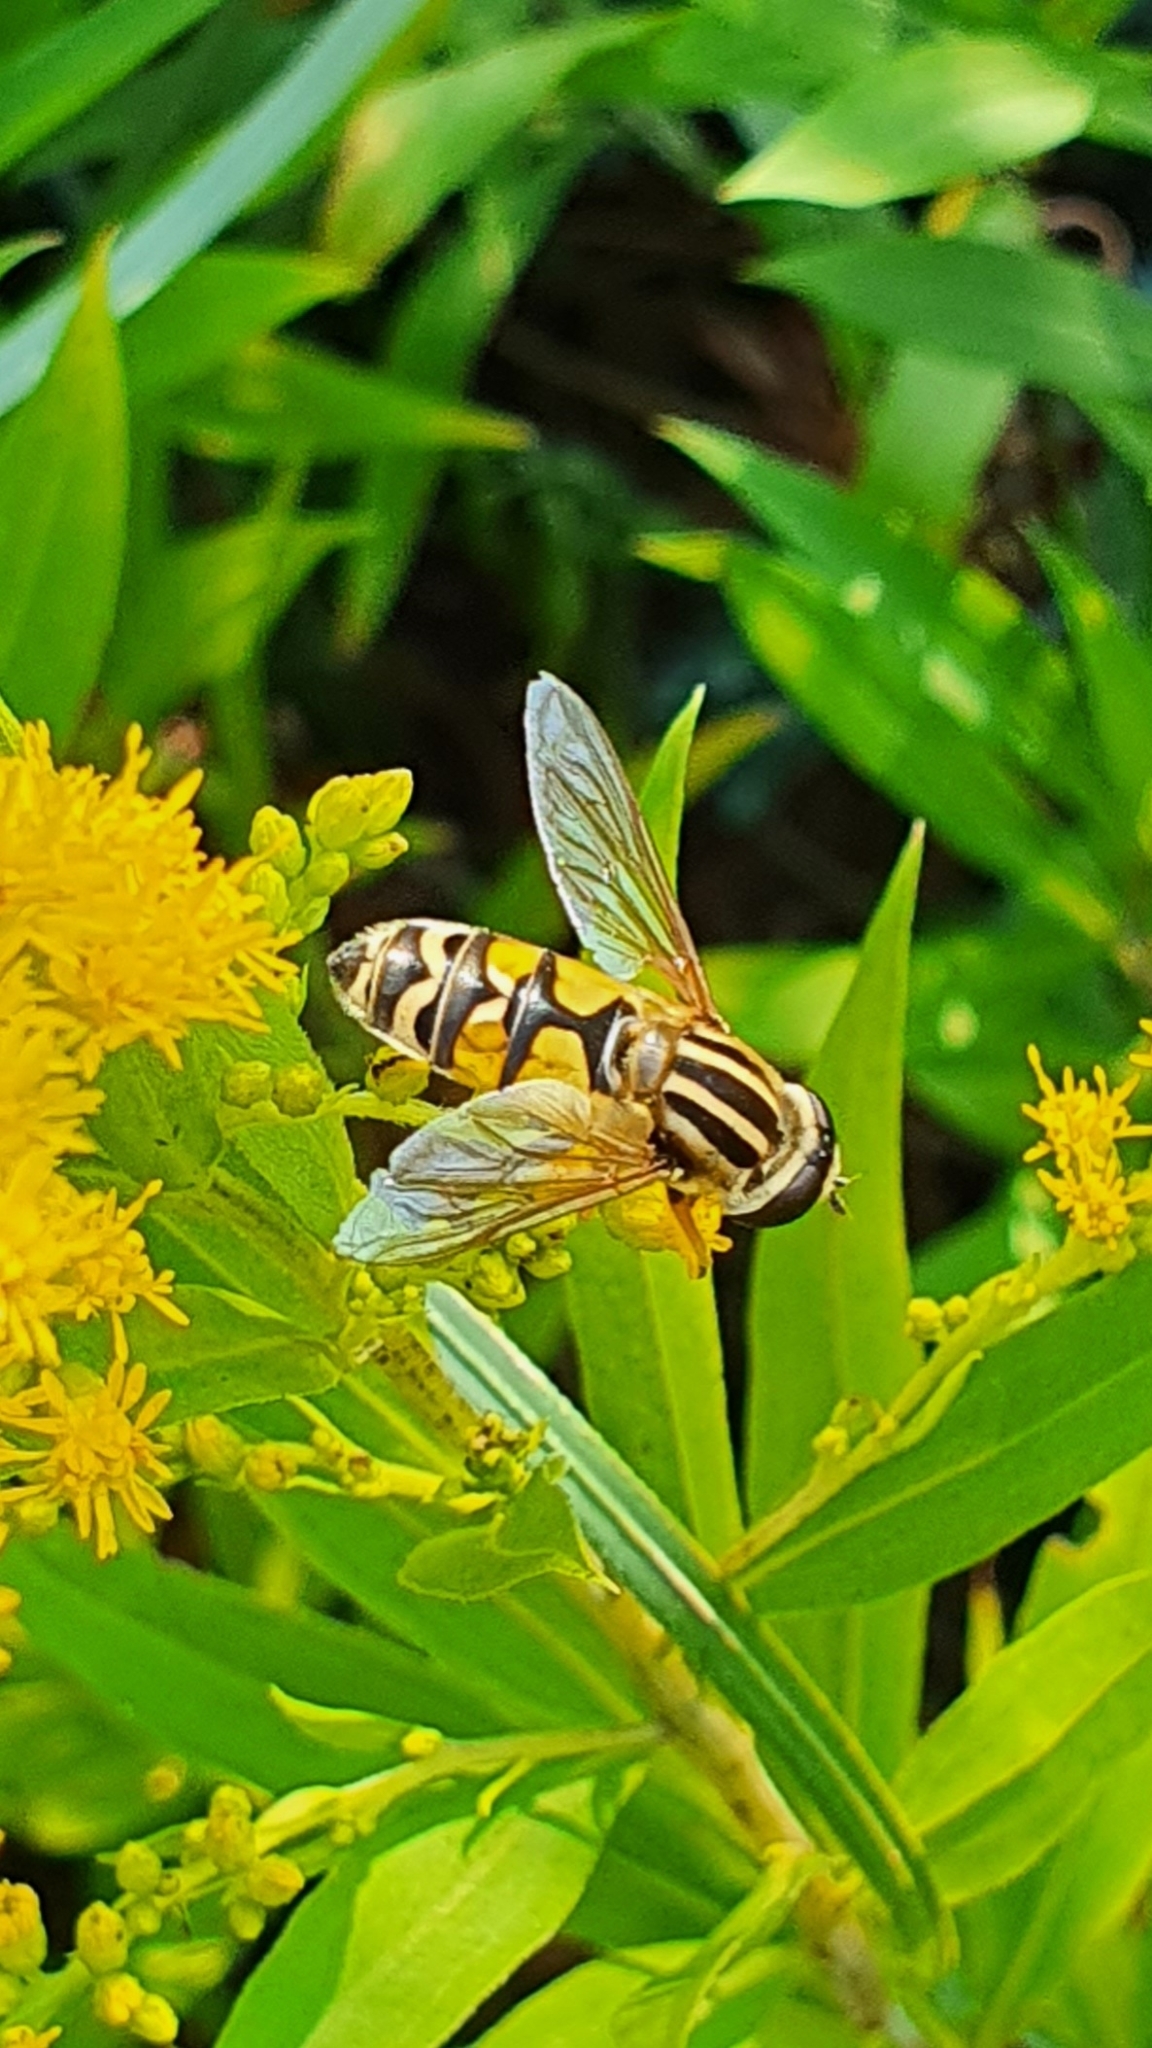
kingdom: Animalia
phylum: Arthropoda
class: Insecta
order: Diptera
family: Syrphidae
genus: Helophilus
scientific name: Helophilus trivittatus
